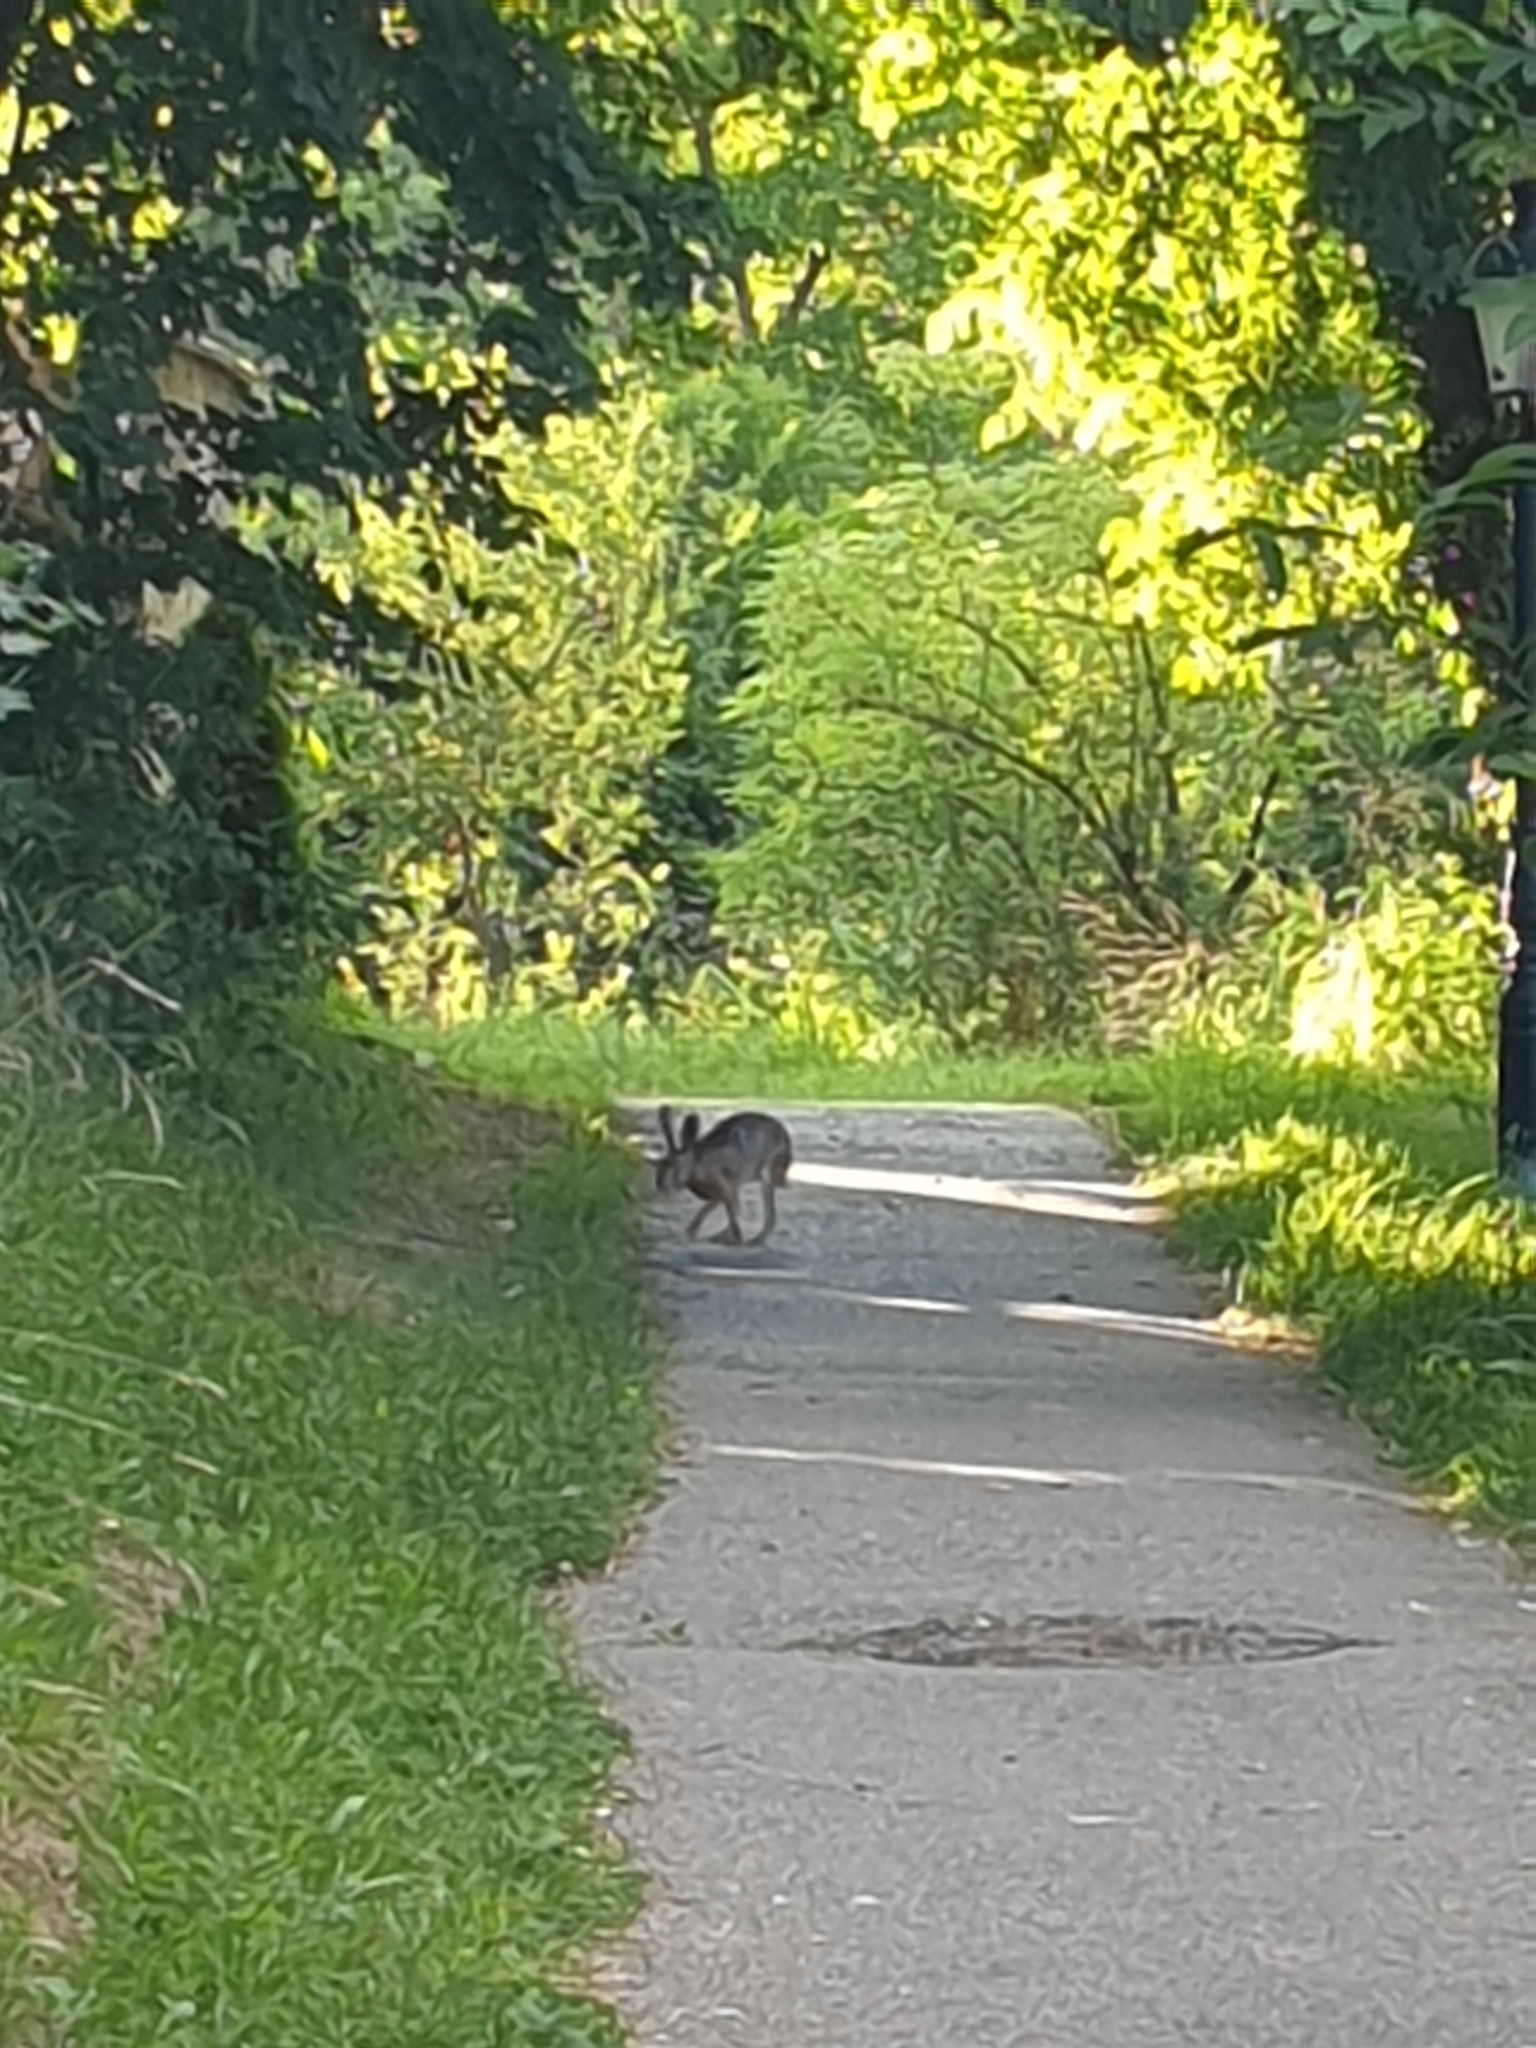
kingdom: Animalia
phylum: Chordata
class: Mammalia
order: Lagomorpha
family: Leporidae
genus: Lepus
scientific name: Lepus europaeus
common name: European hare
